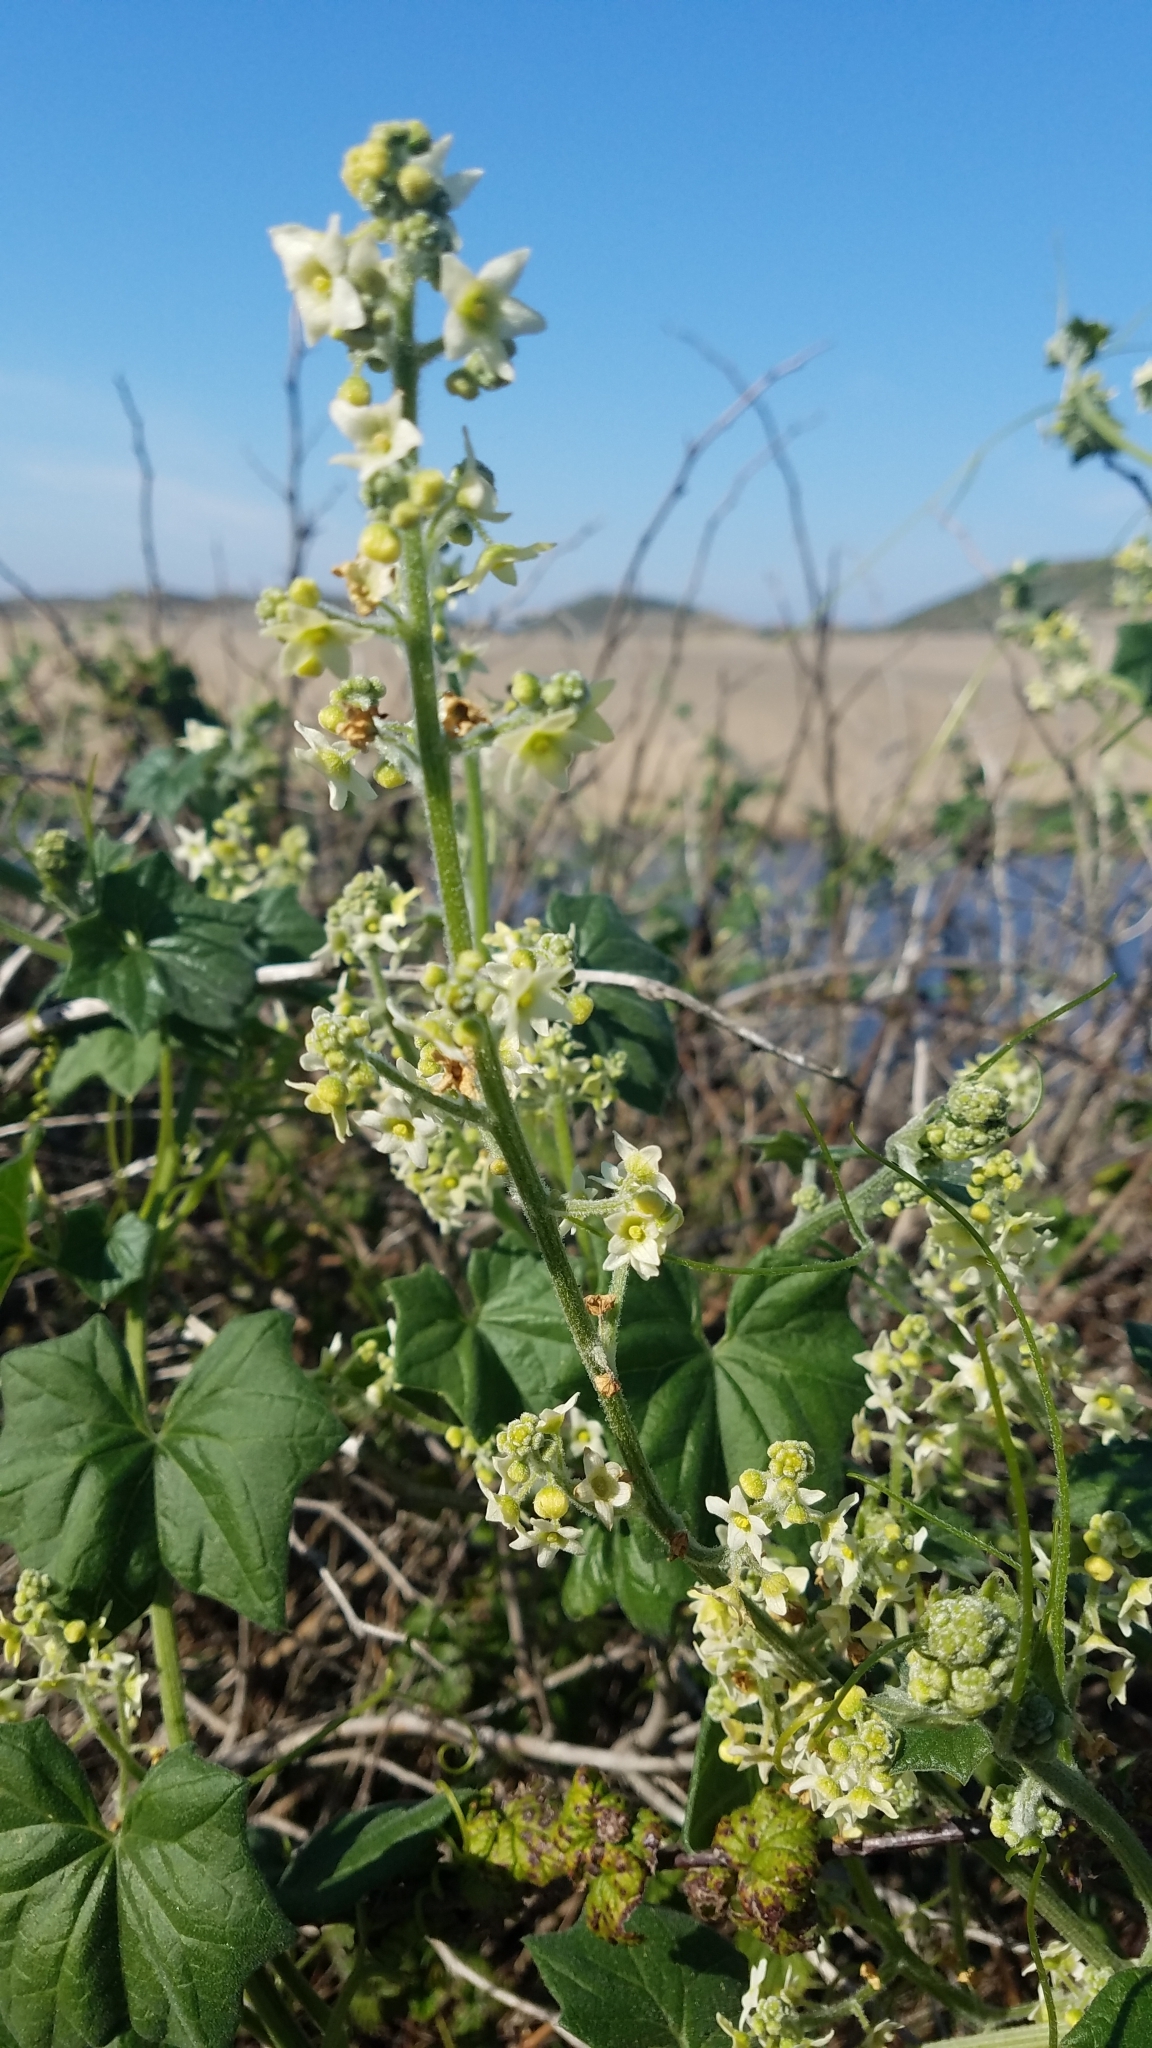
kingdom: Plantae
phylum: Tracheophyta
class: Magnoliopsida
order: Cucurbitales
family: Cucurbitaceae
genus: Marah
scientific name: Marah fabacea
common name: California manroot
